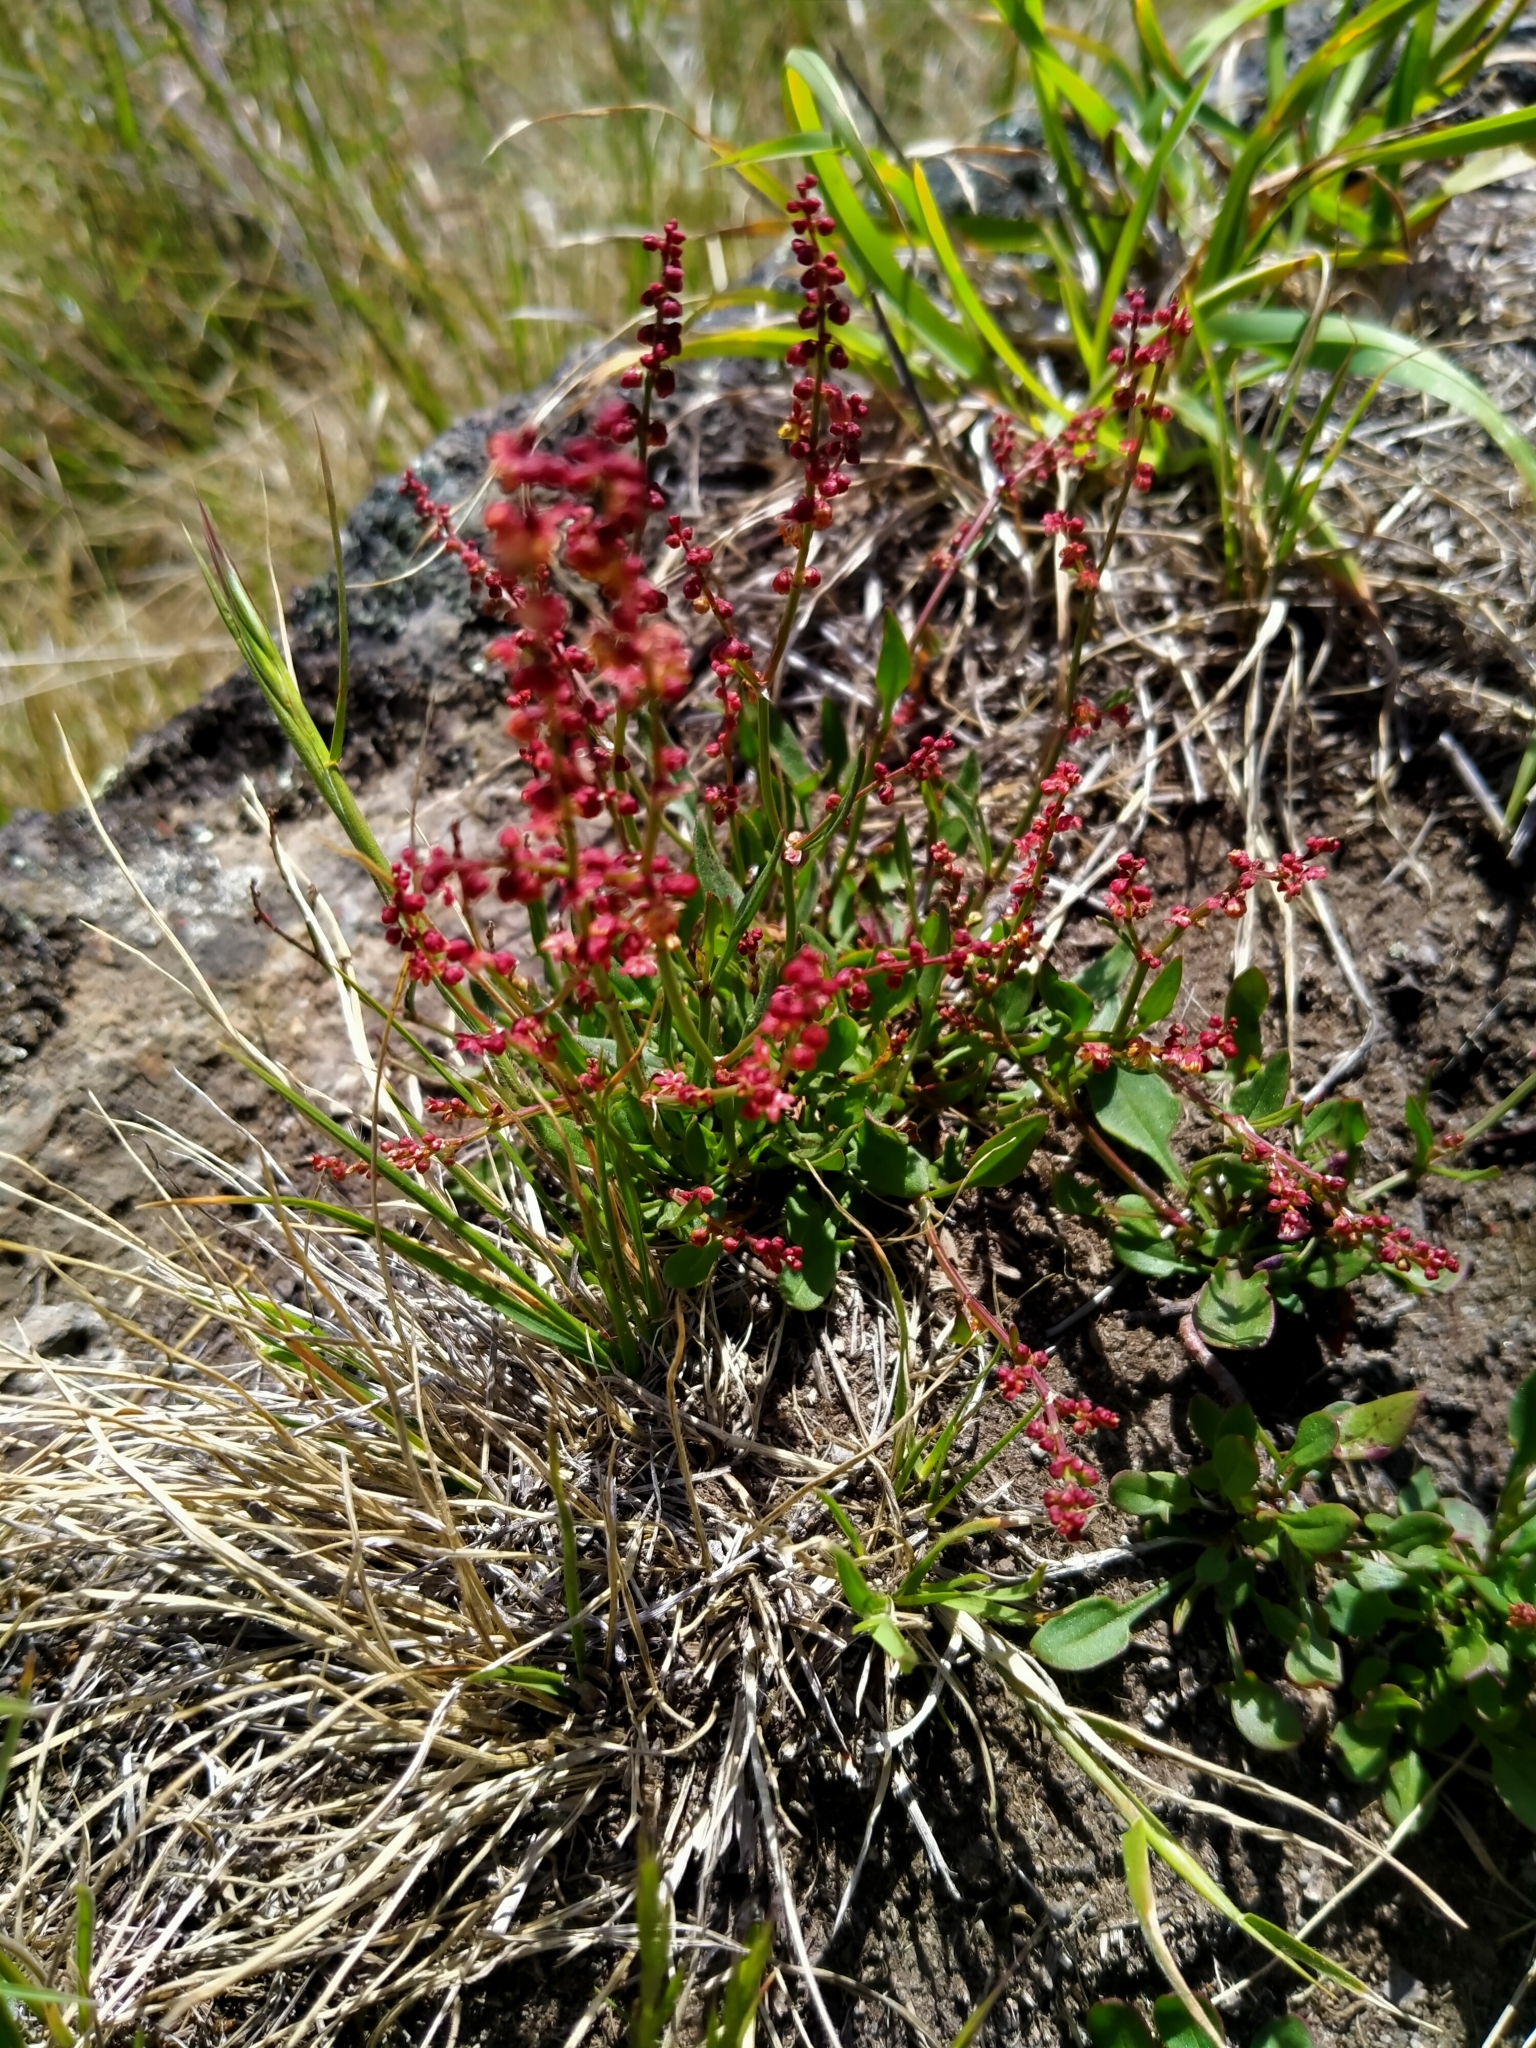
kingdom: Plantae
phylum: Tracheophyta
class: Magnoliopsida
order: Caryophyllales
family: Polygonaceae
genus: Rumex
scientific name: Rumex acetosella
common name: Common sheep sorrel
